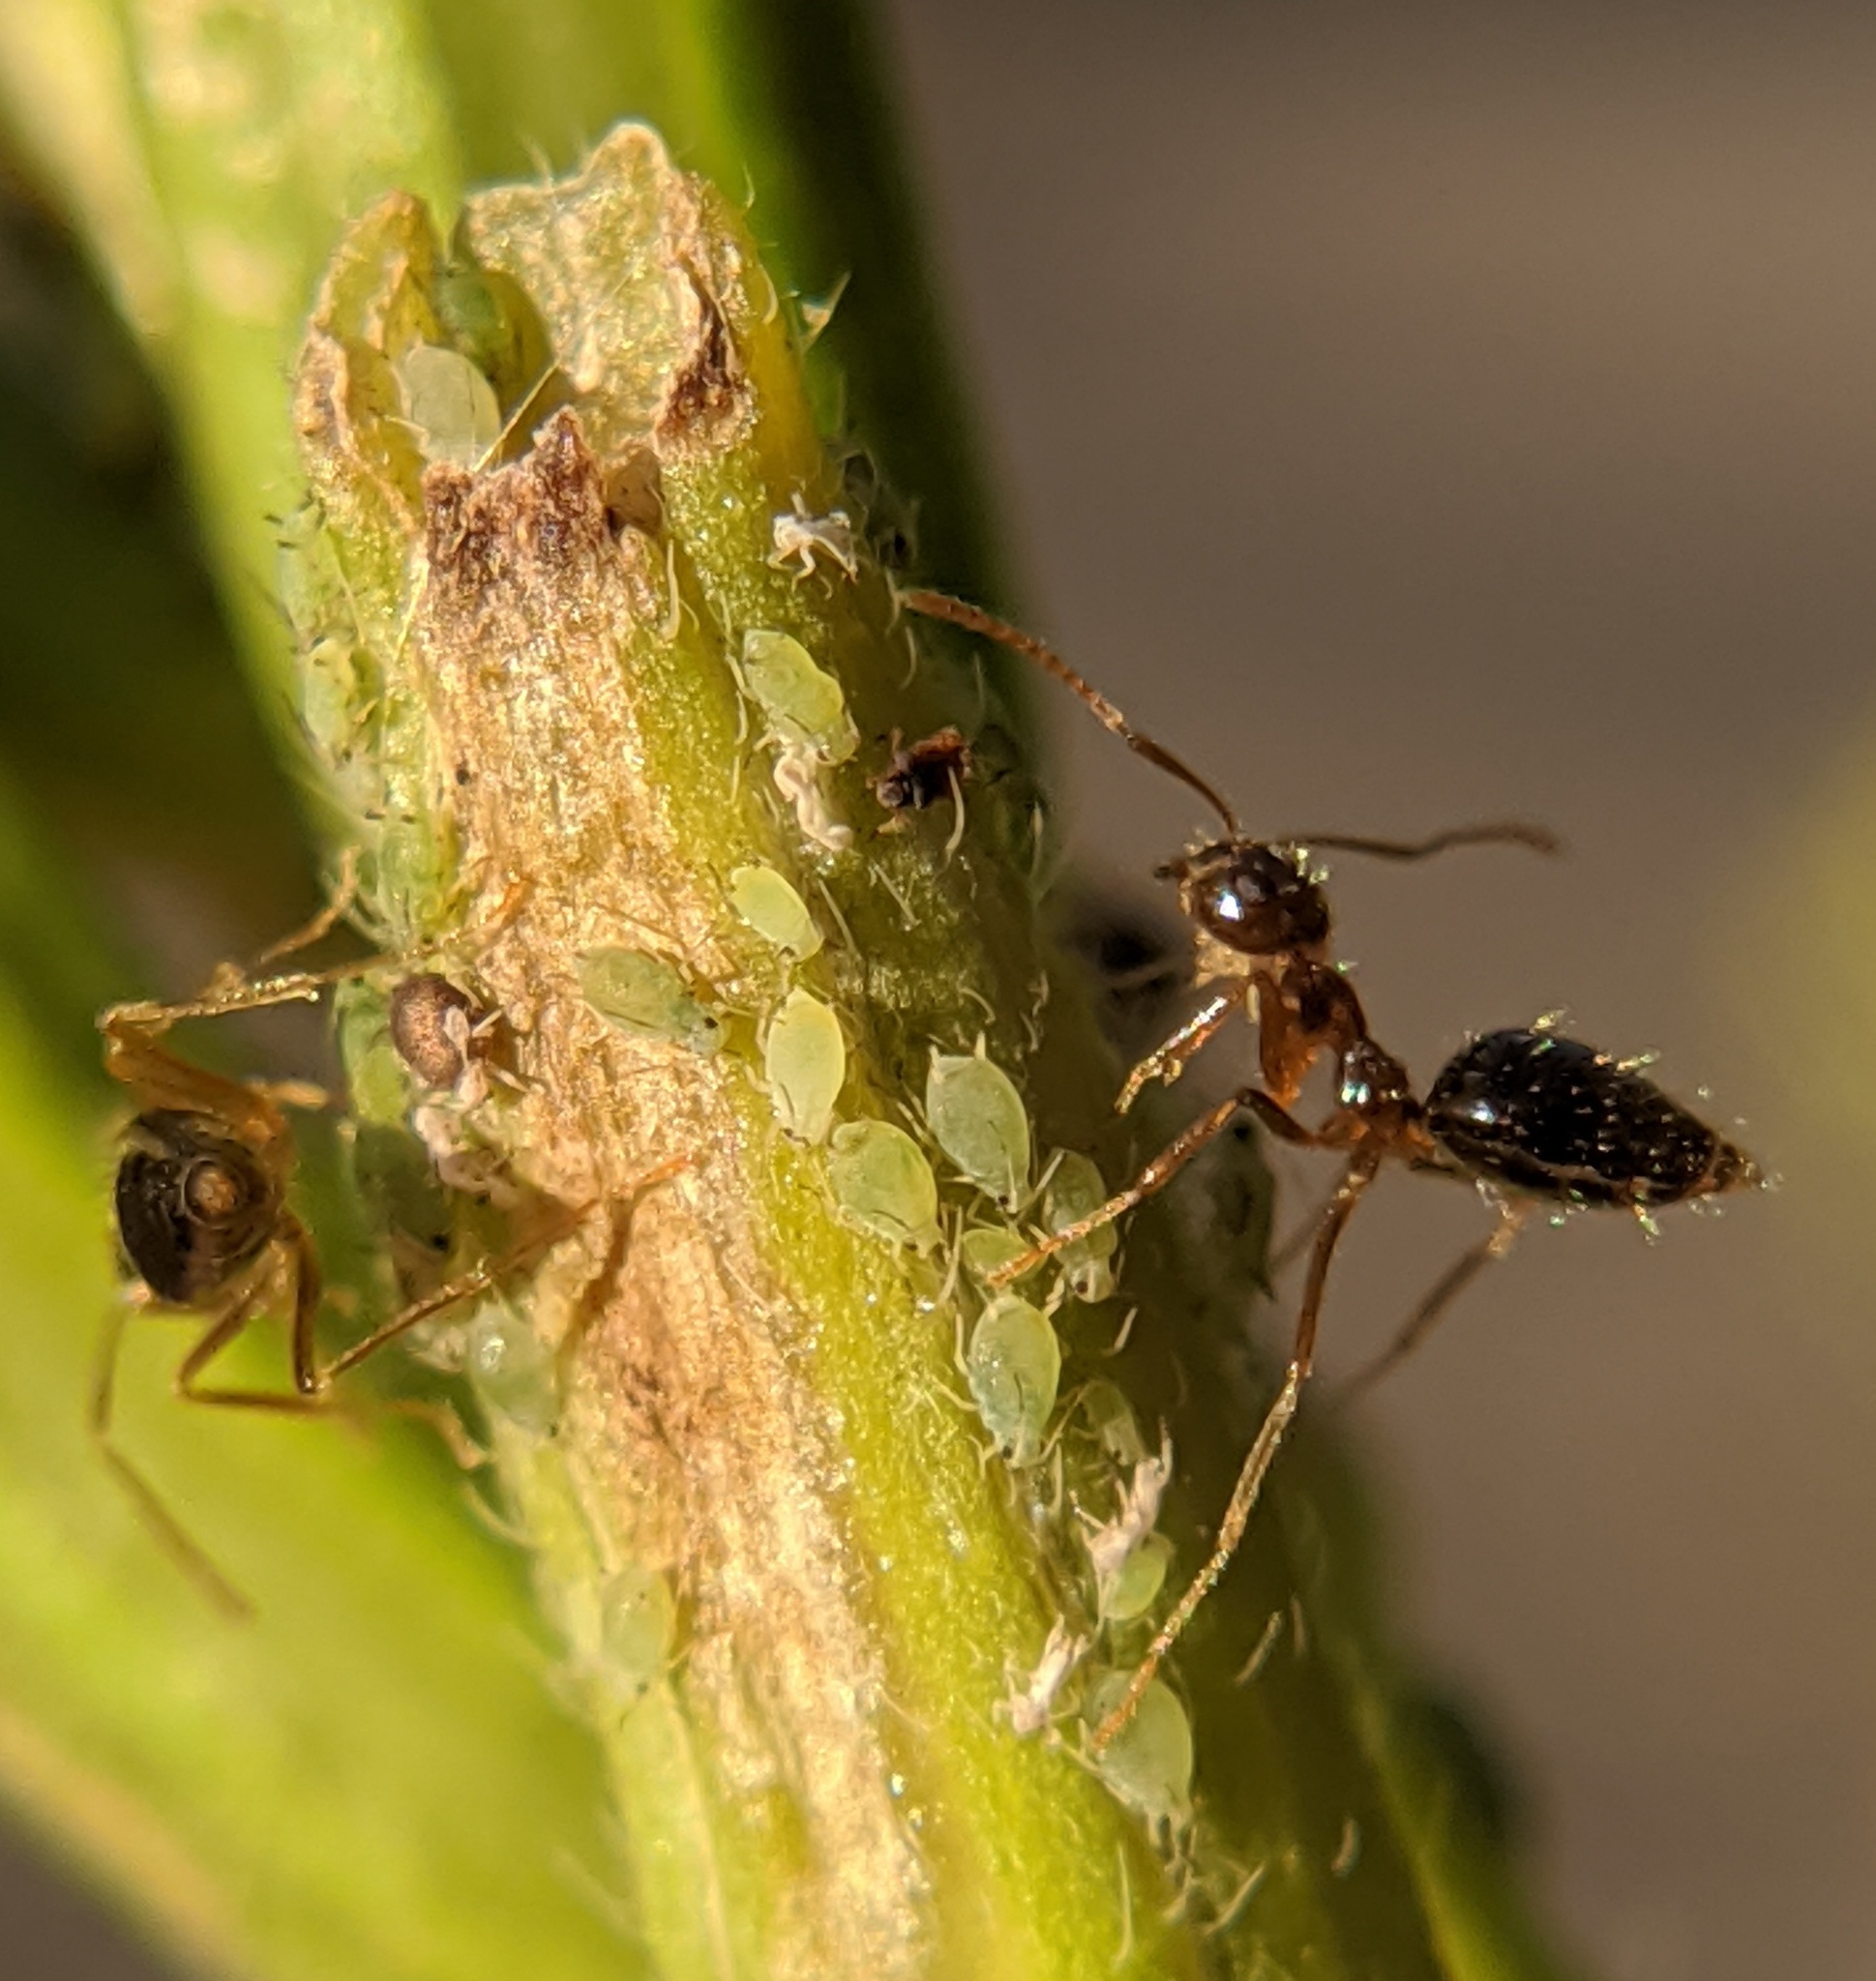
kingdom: Animalia
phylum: Arthropoda
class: Insecta
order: Hymenoptera
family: Formicidae
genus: Prenolepis
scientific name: Prenolepis imparis
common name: Small honey ant
